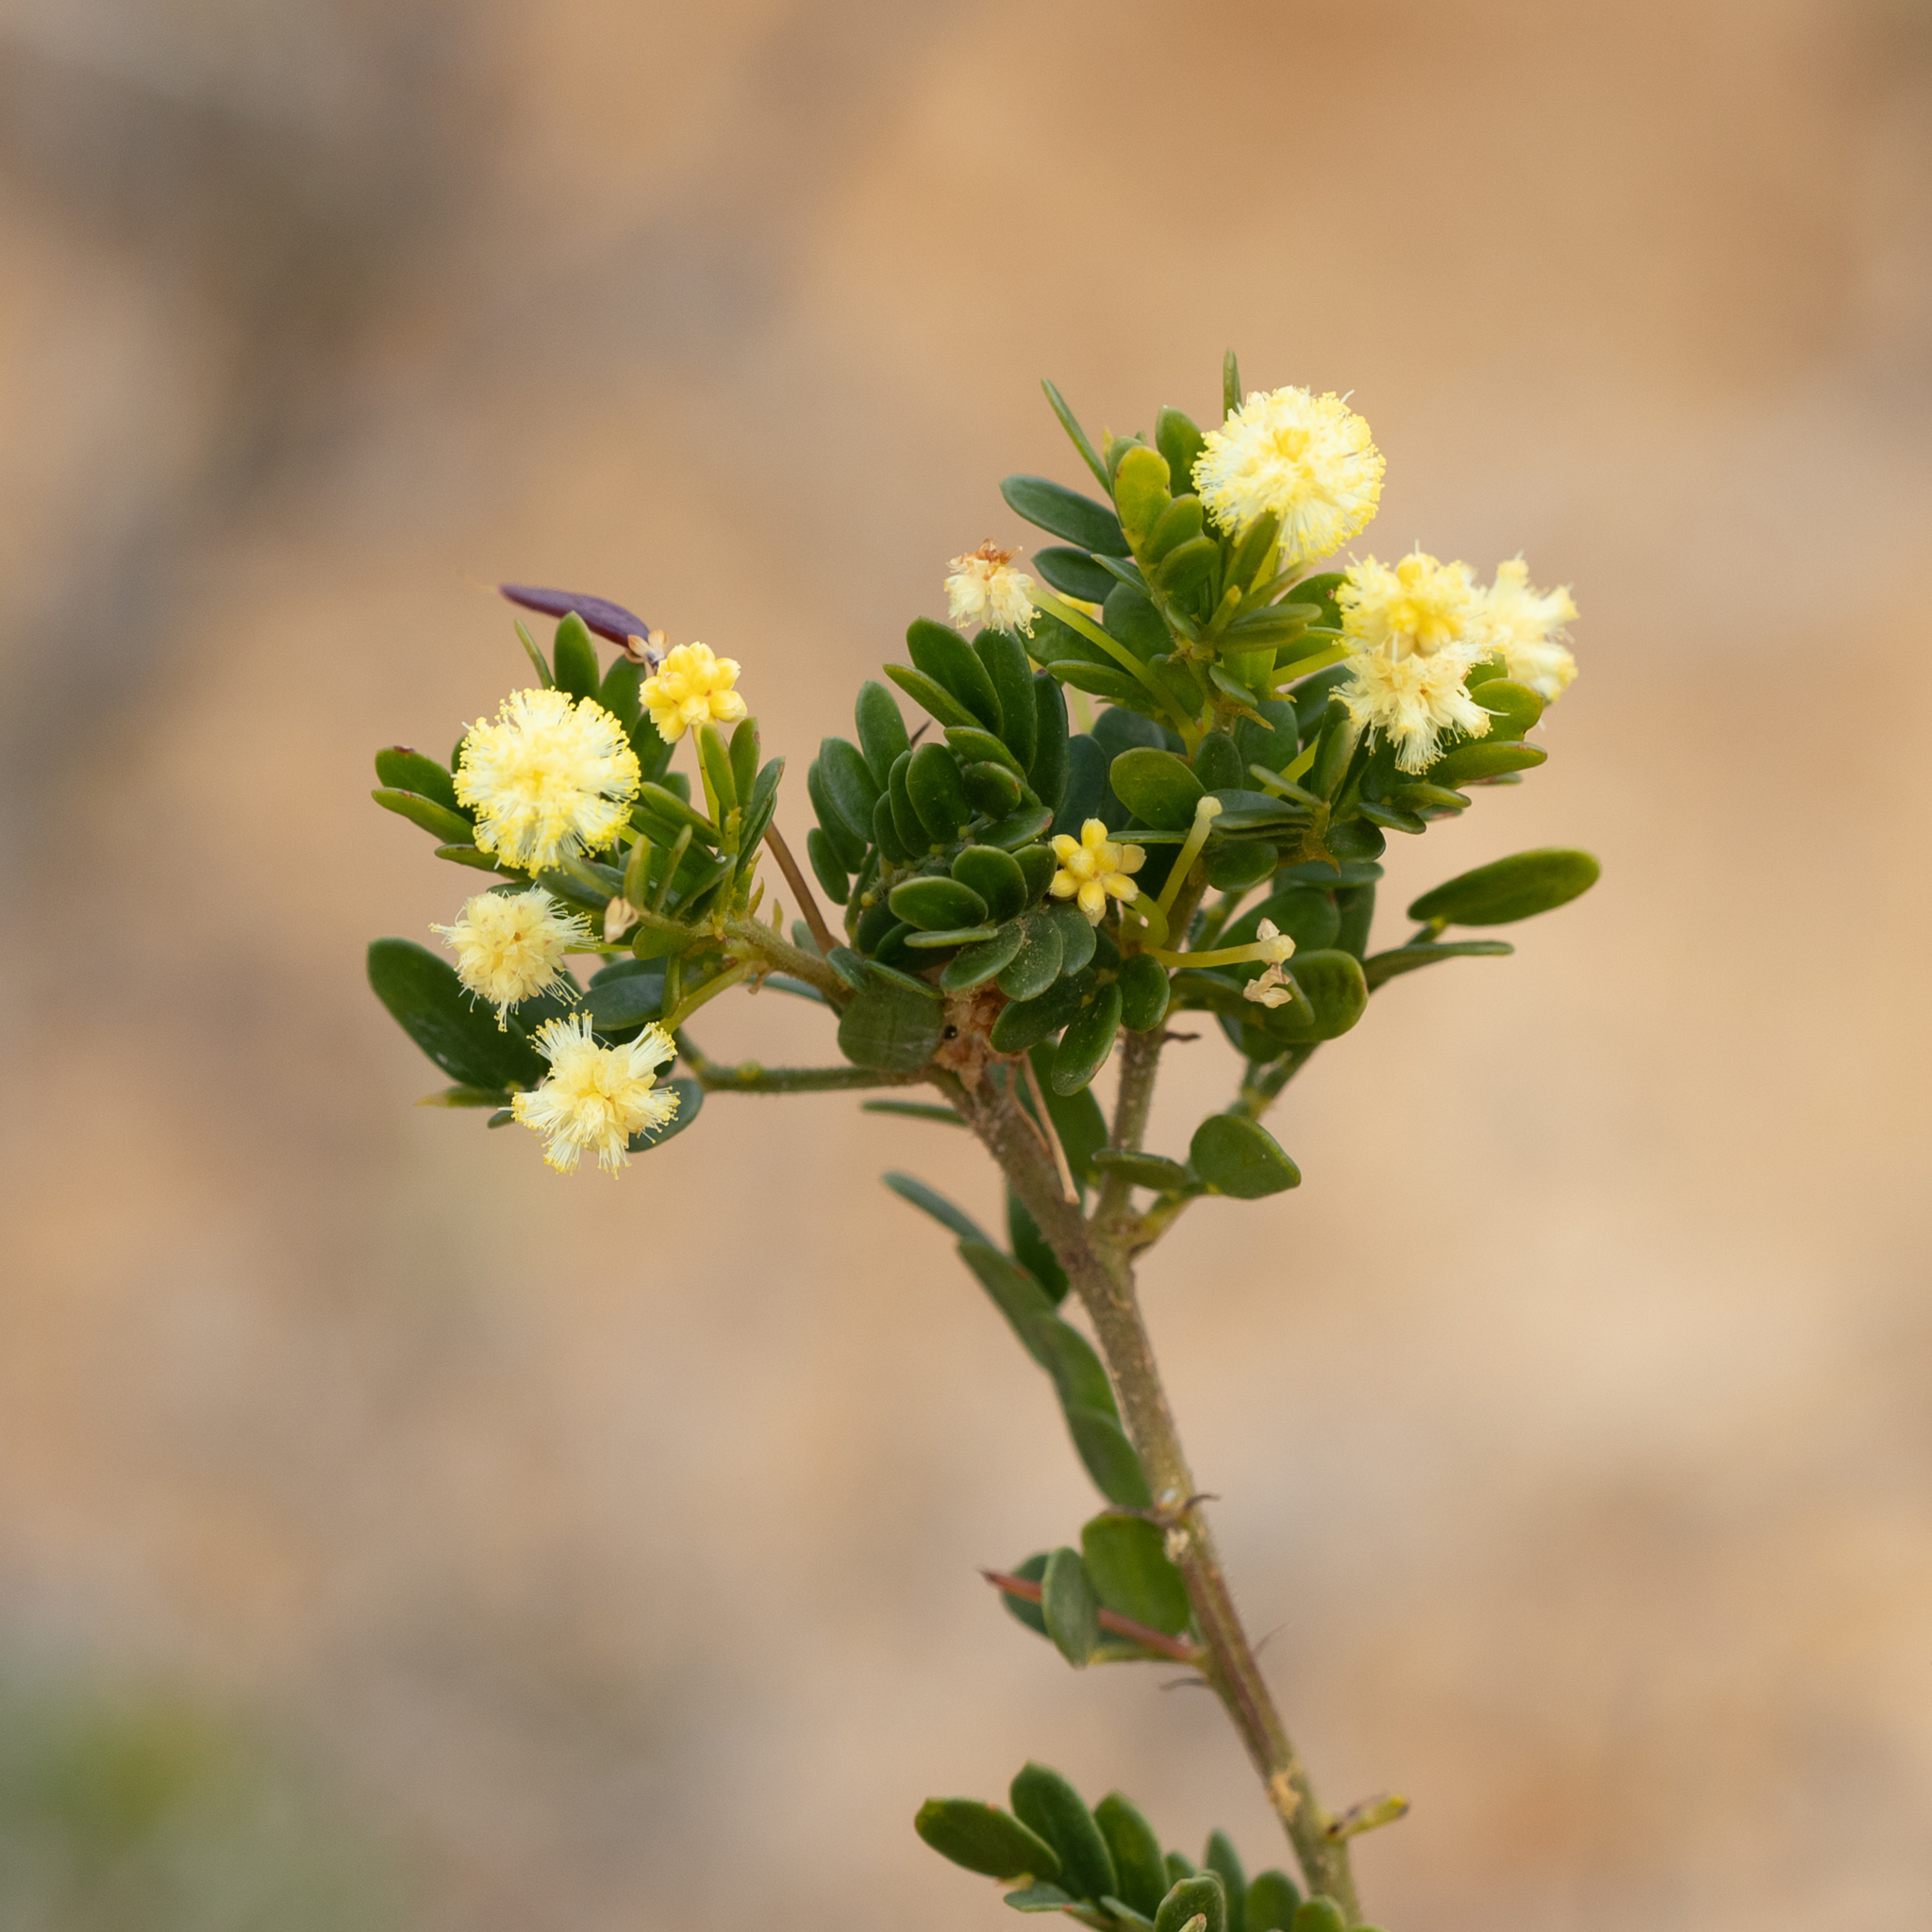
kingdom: Plantae
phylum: Tracheophyta
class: Magnoliopsida
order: Fabales
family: Fabaceae
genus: Acacia
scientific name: Acacia nigricans
